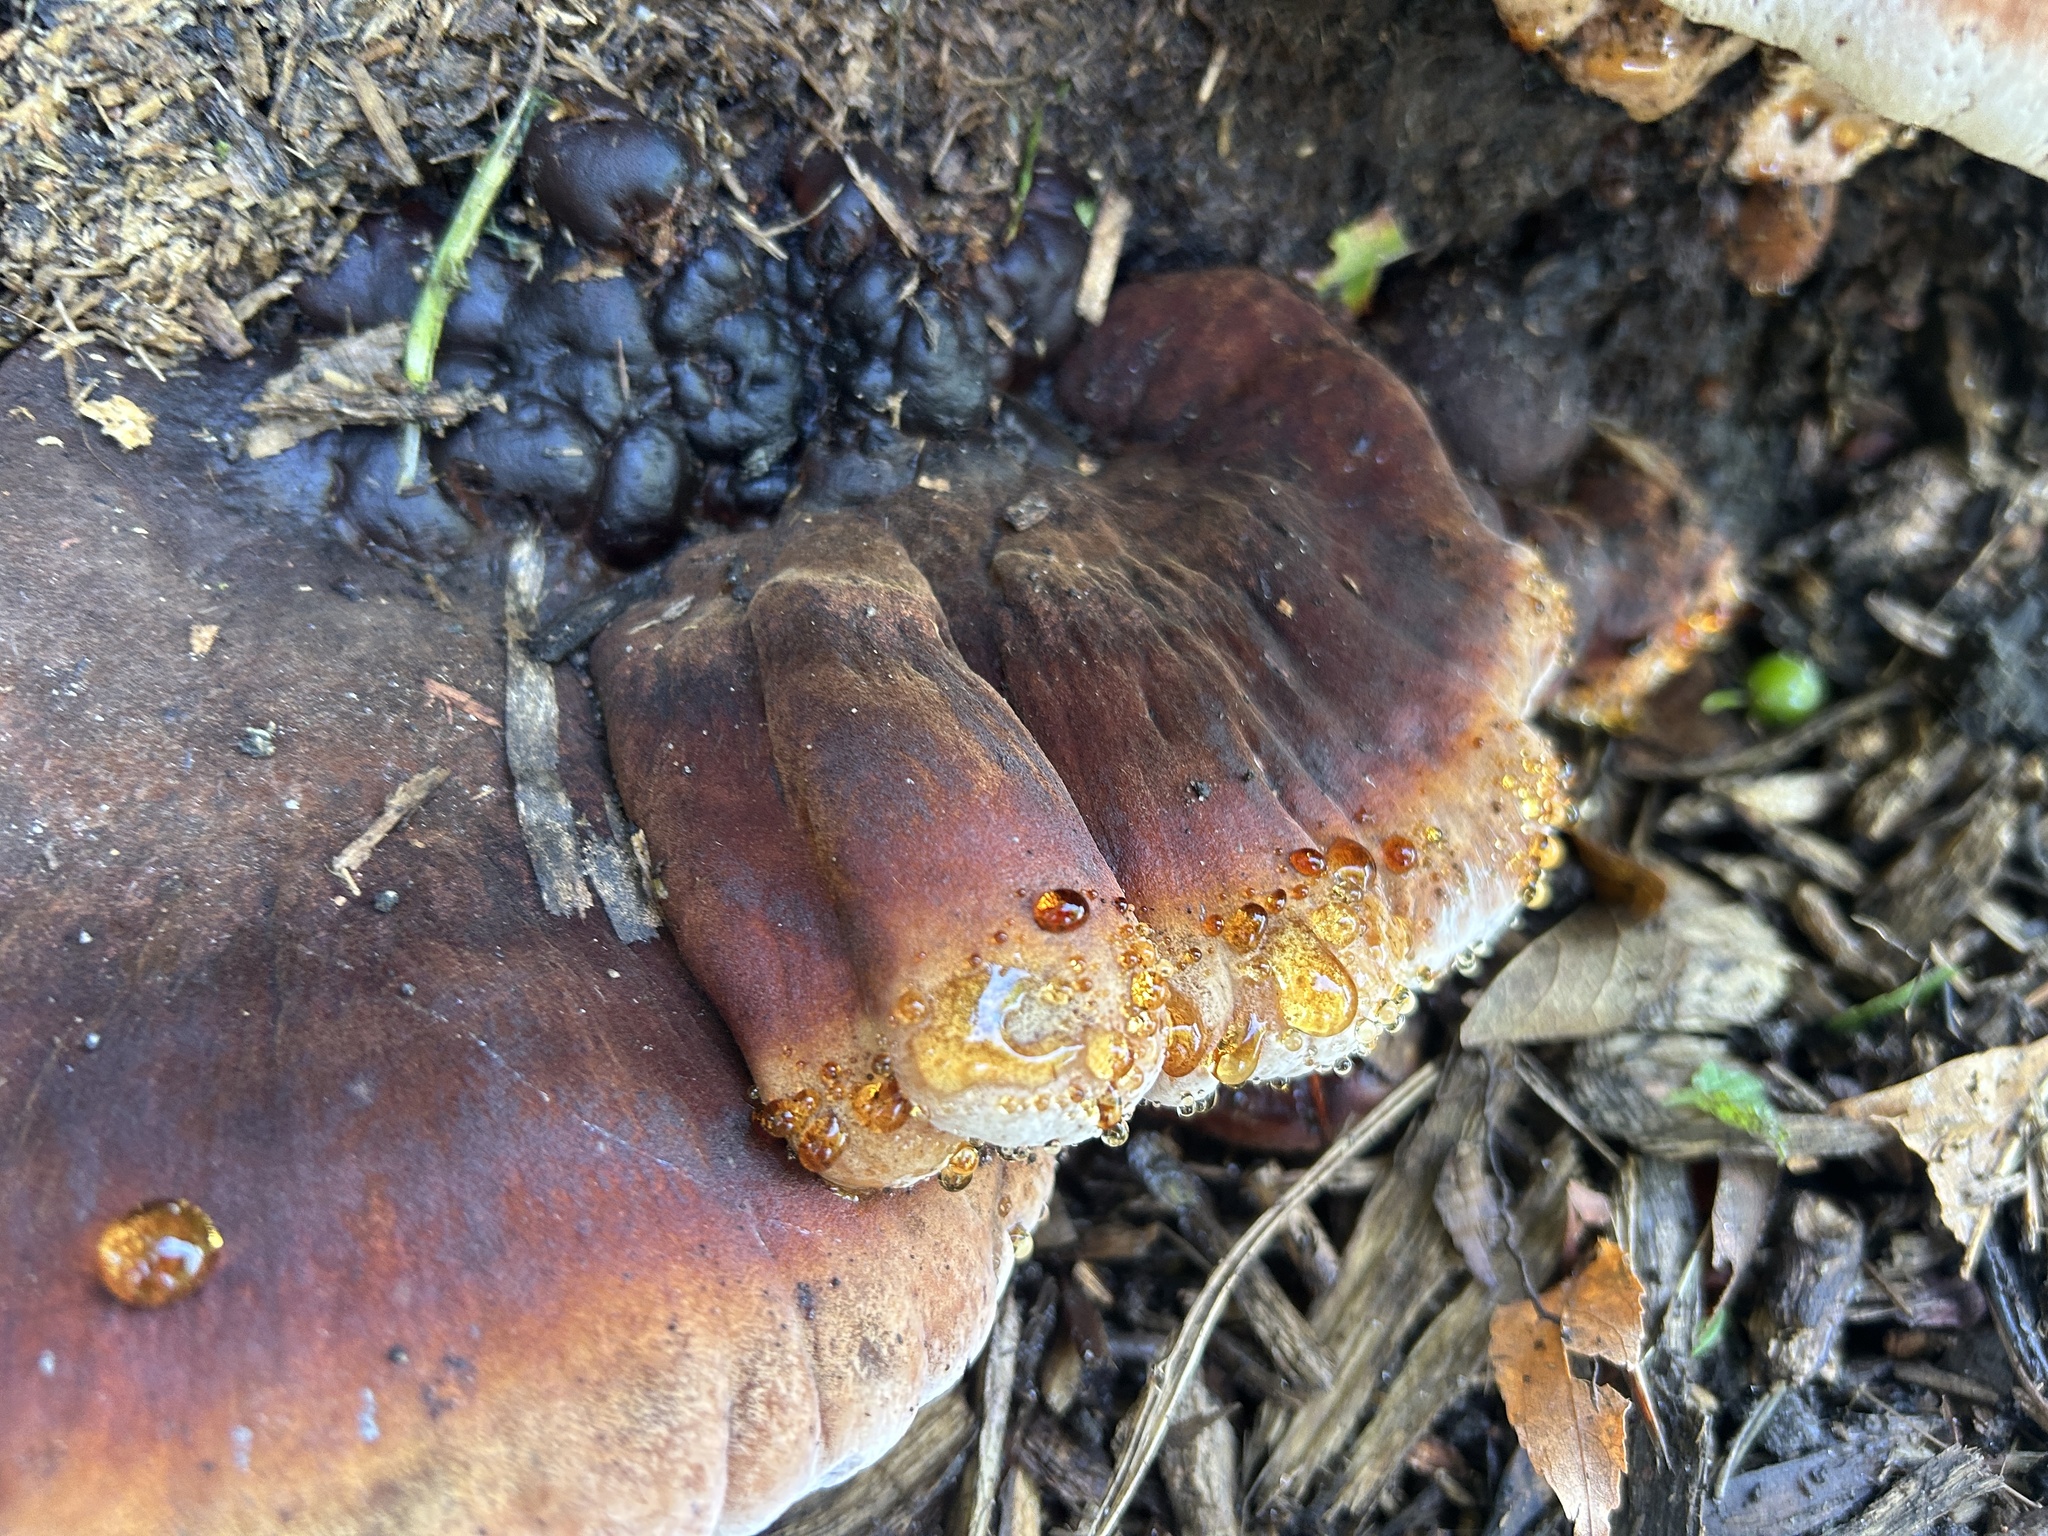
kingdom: Fungi
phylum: Basidiomycota
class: Agaricomycetes
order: Polyporales
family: Ischnodermataceae
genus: Ischnoderma
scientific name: Ischnoderma resinosum
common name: Resinous polypore
